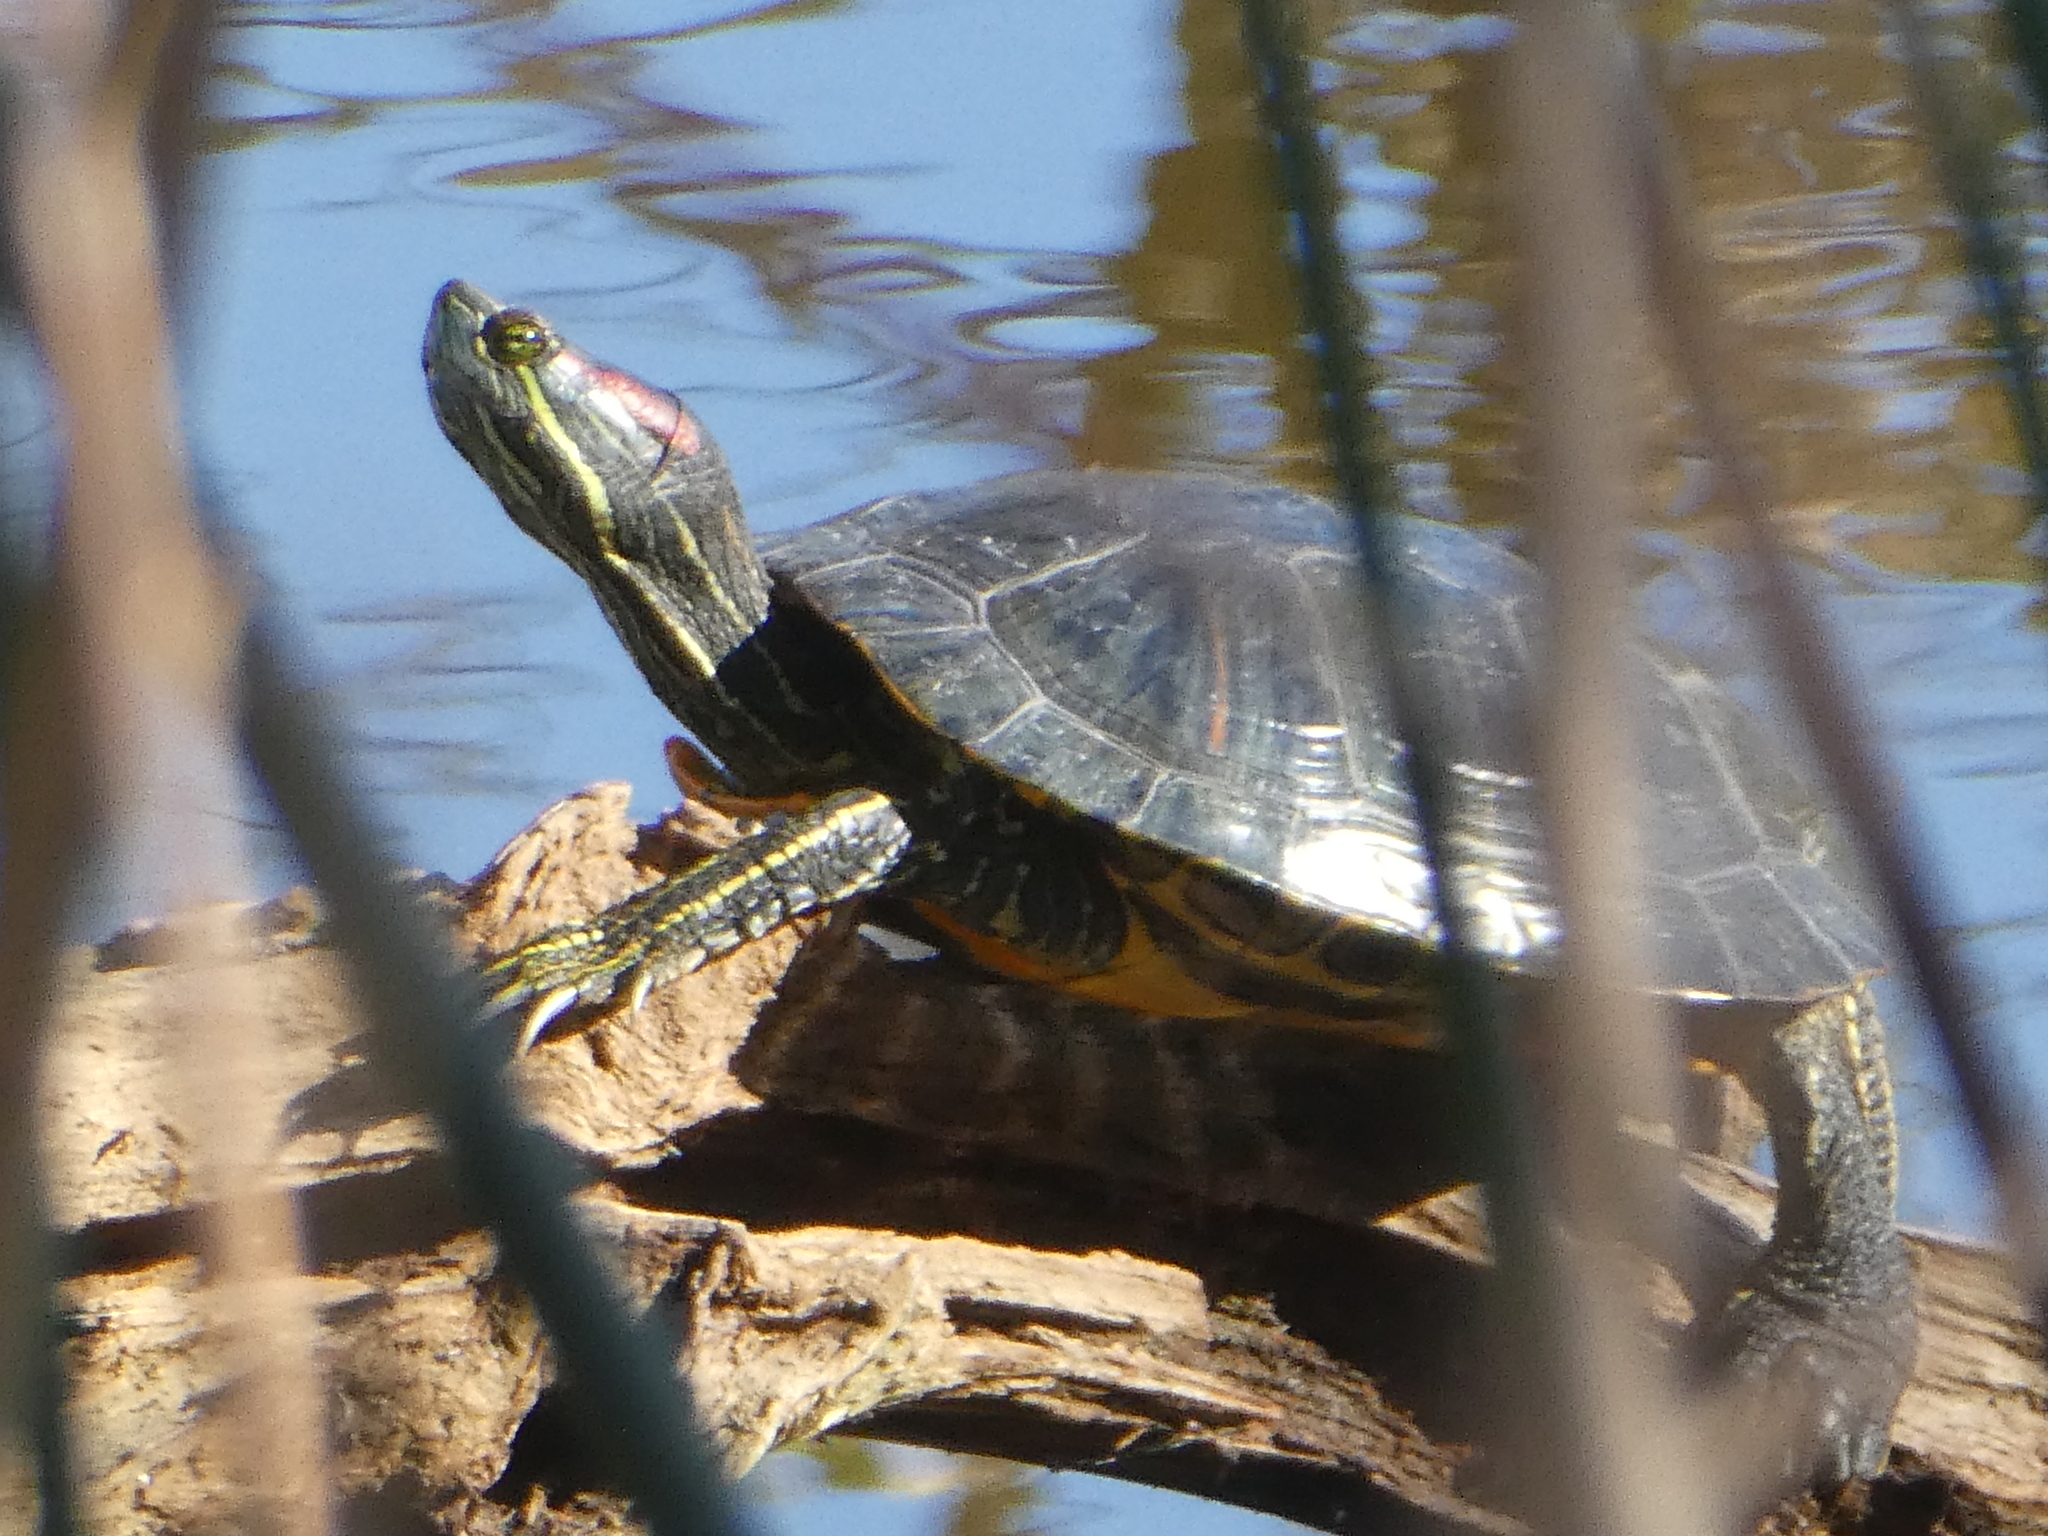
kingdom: Animalia
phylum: Chordata
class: Testudines
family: Emydidae
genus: Trachemys
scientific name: Trachemys scripta
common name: Slider
